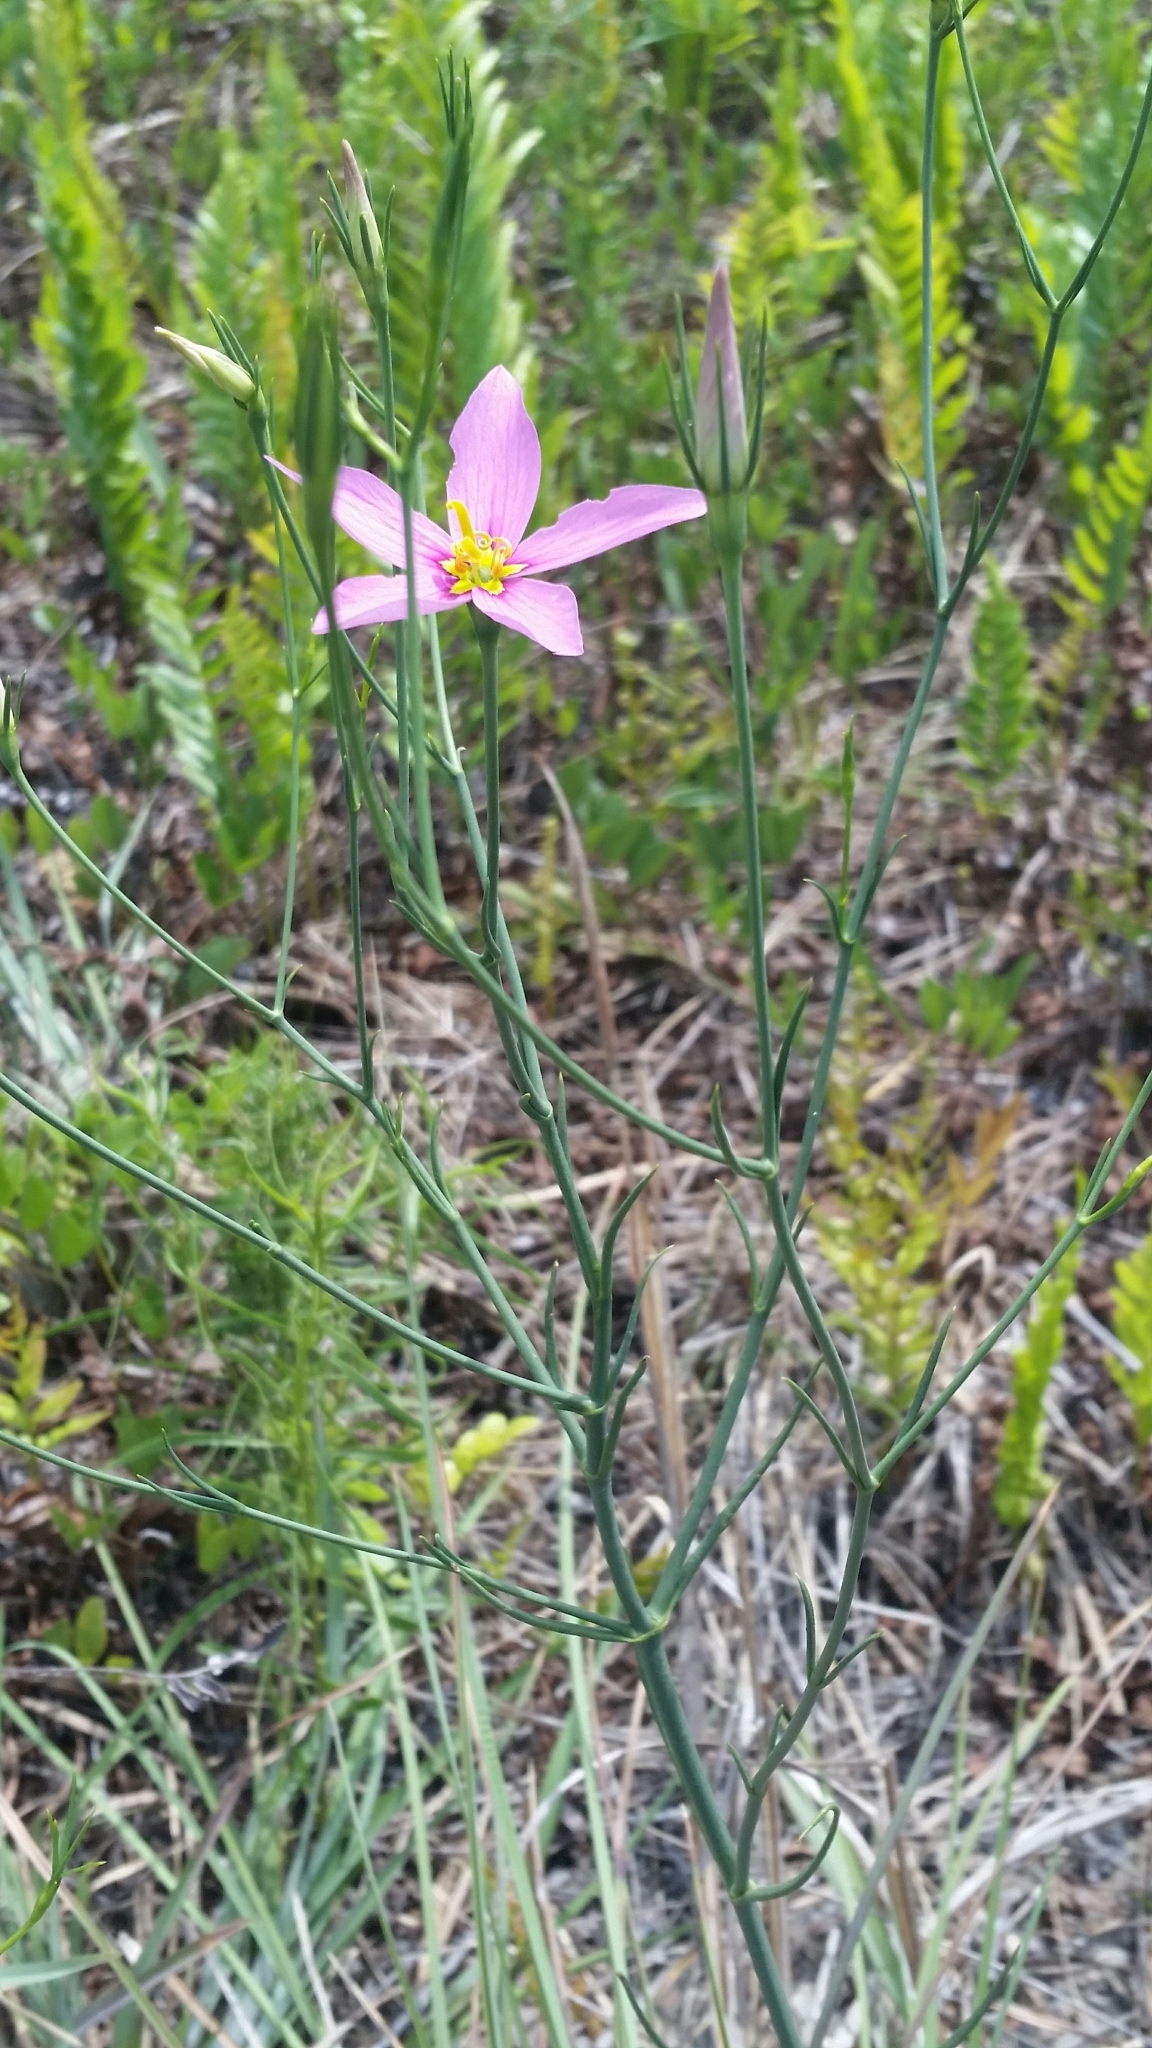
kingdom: Plantae
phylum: Tracheophyta
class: Magnoliopsida
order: Gentianales
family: Gentianaceae
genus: Sabatia
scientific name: Sabatia grandiflora
